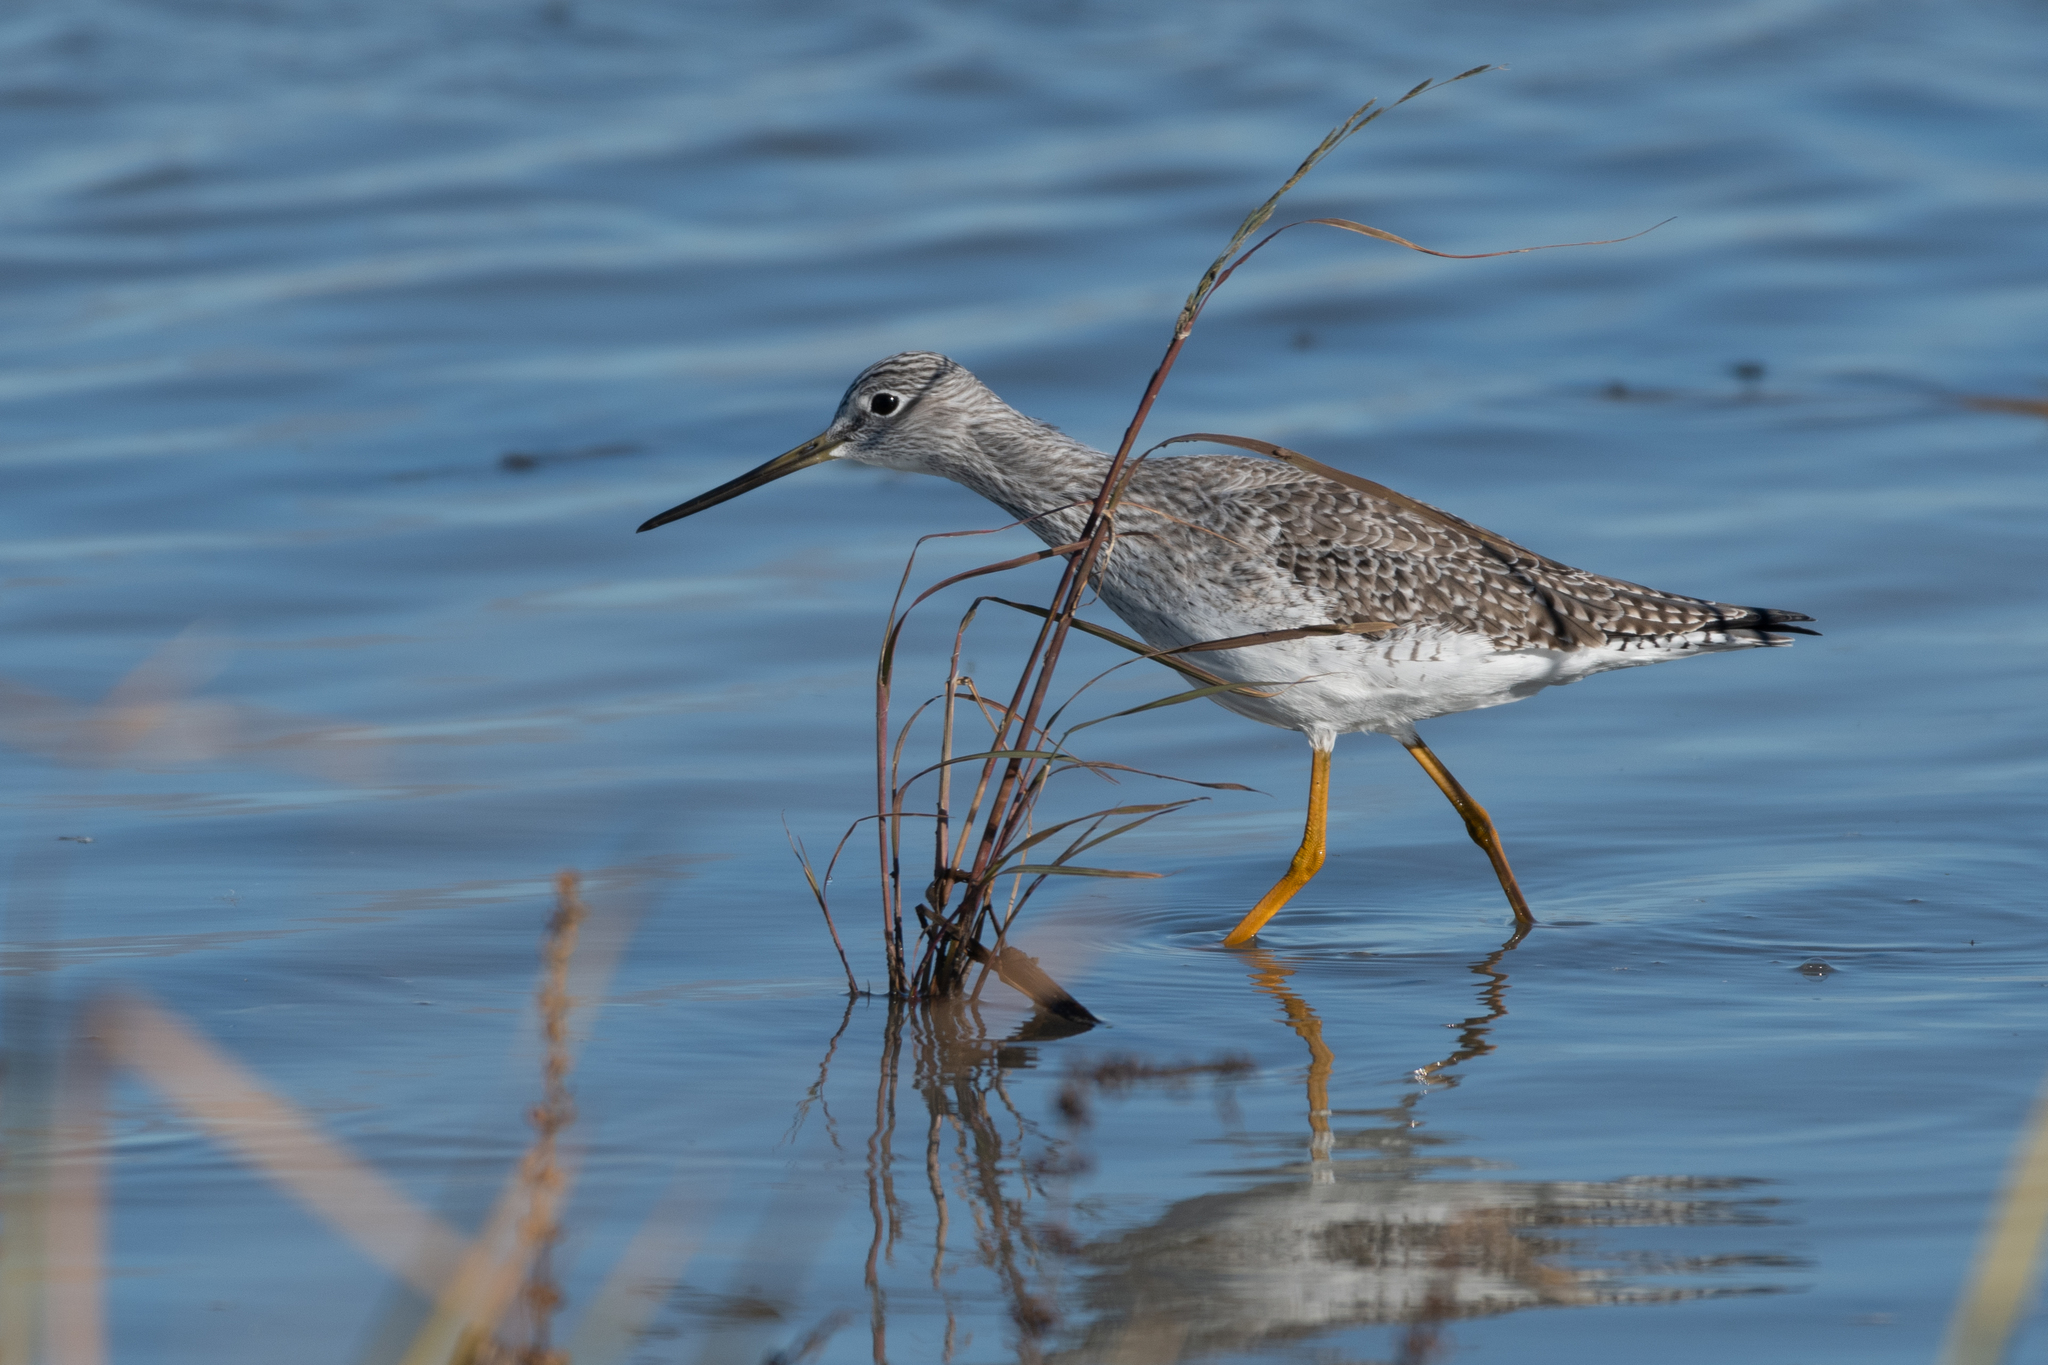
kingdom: Animalia
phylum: Chordata
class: Aves
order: Charadriiformes
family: Scolopacidae
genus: Tringa
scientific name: Tringa melanoleuca
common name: Greater yellowlegs
